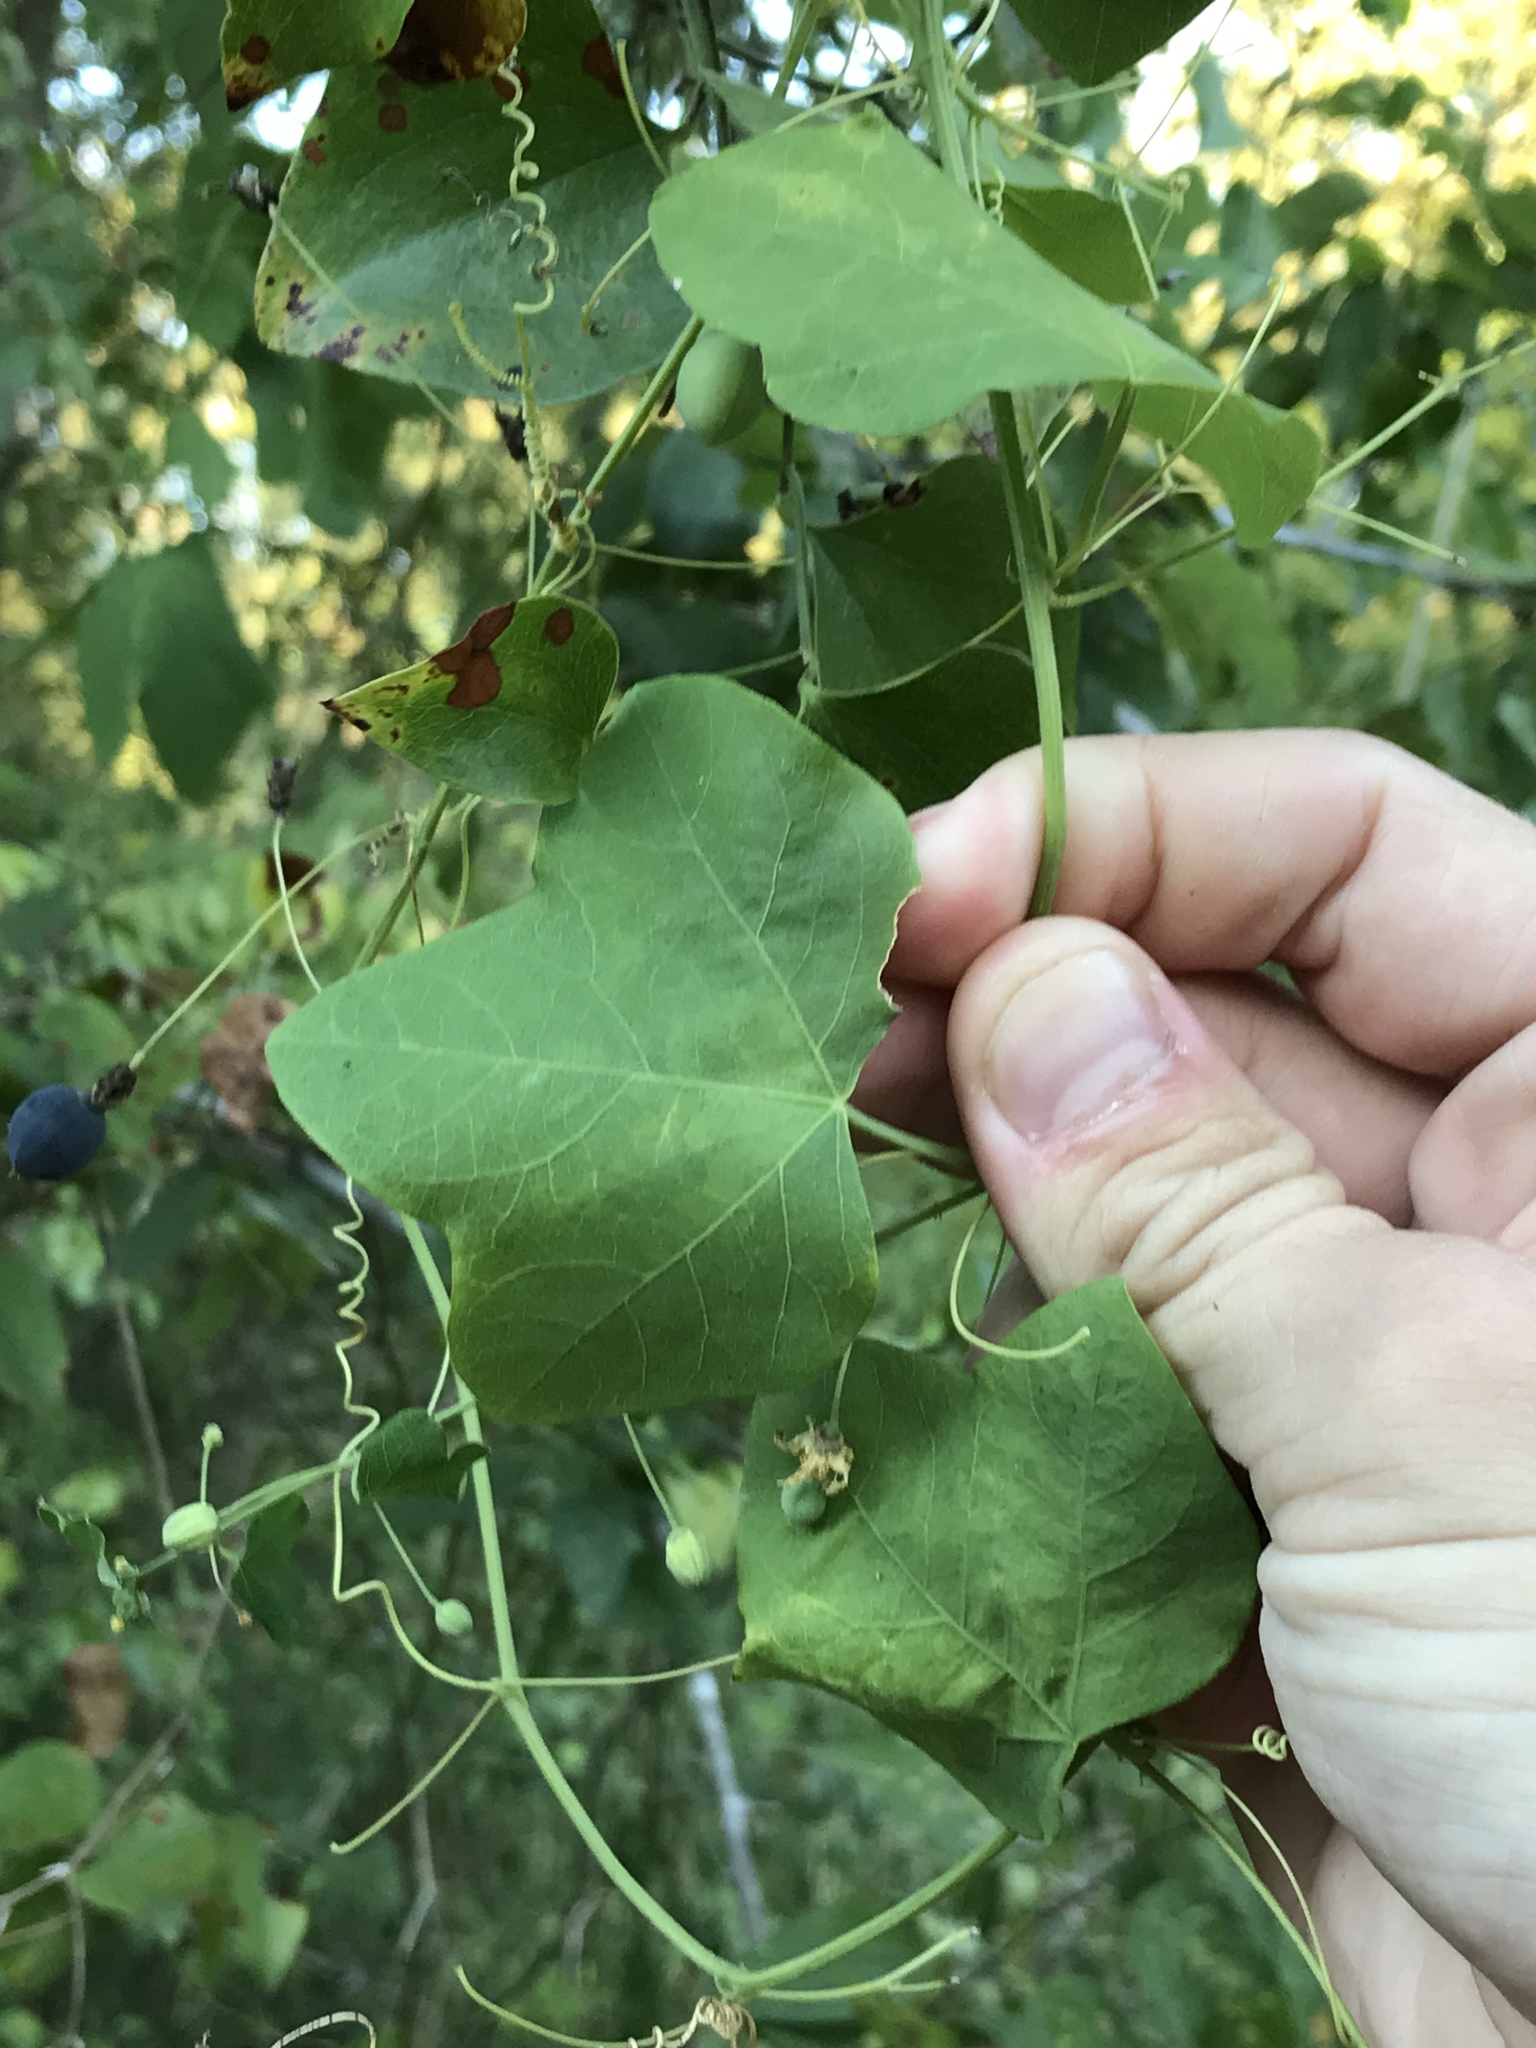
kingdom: Plantae
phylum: Tracheophyta
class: Magnoliopsida
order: Malpighiales
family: Passifloraceae
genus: Passiflora
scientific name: Passiflora lutea
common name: Yellow passionflower
